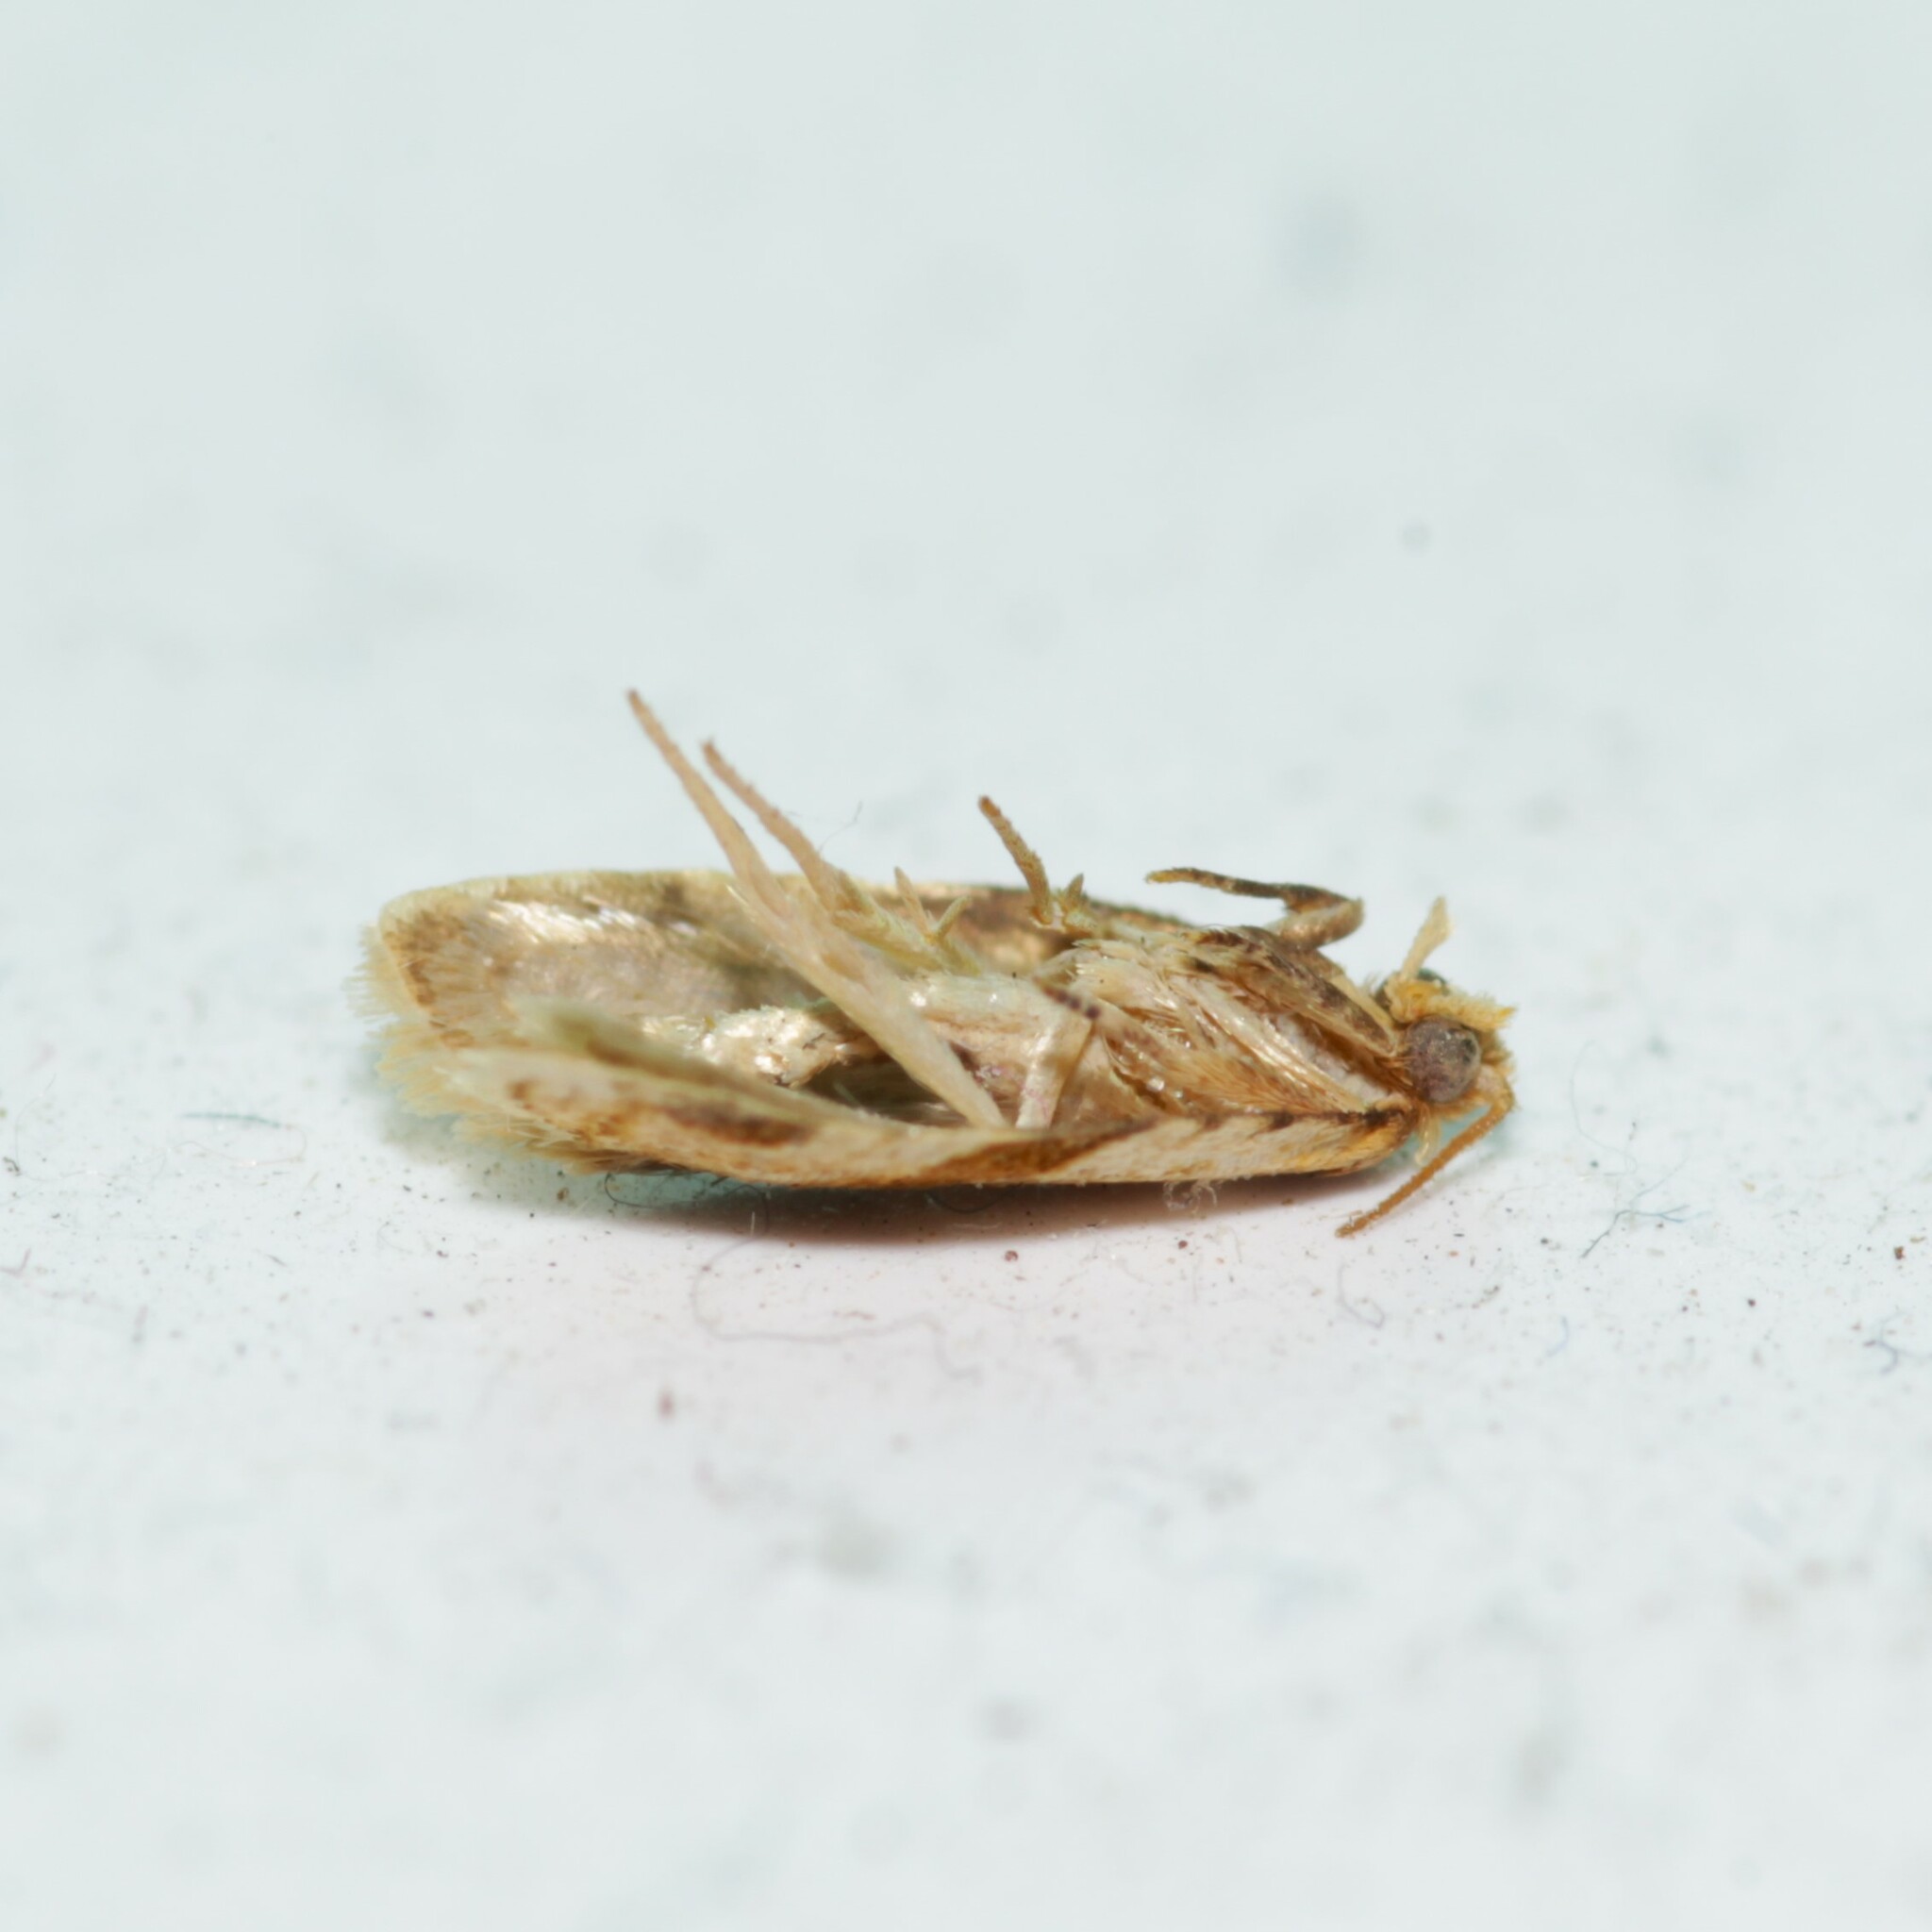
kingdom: Animalia
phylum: Arthropoda
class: Insecta
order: Lepidoptera
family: Tortricidae
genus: Clepsis
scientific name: Clepsis peritana
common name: Garden tortrix
